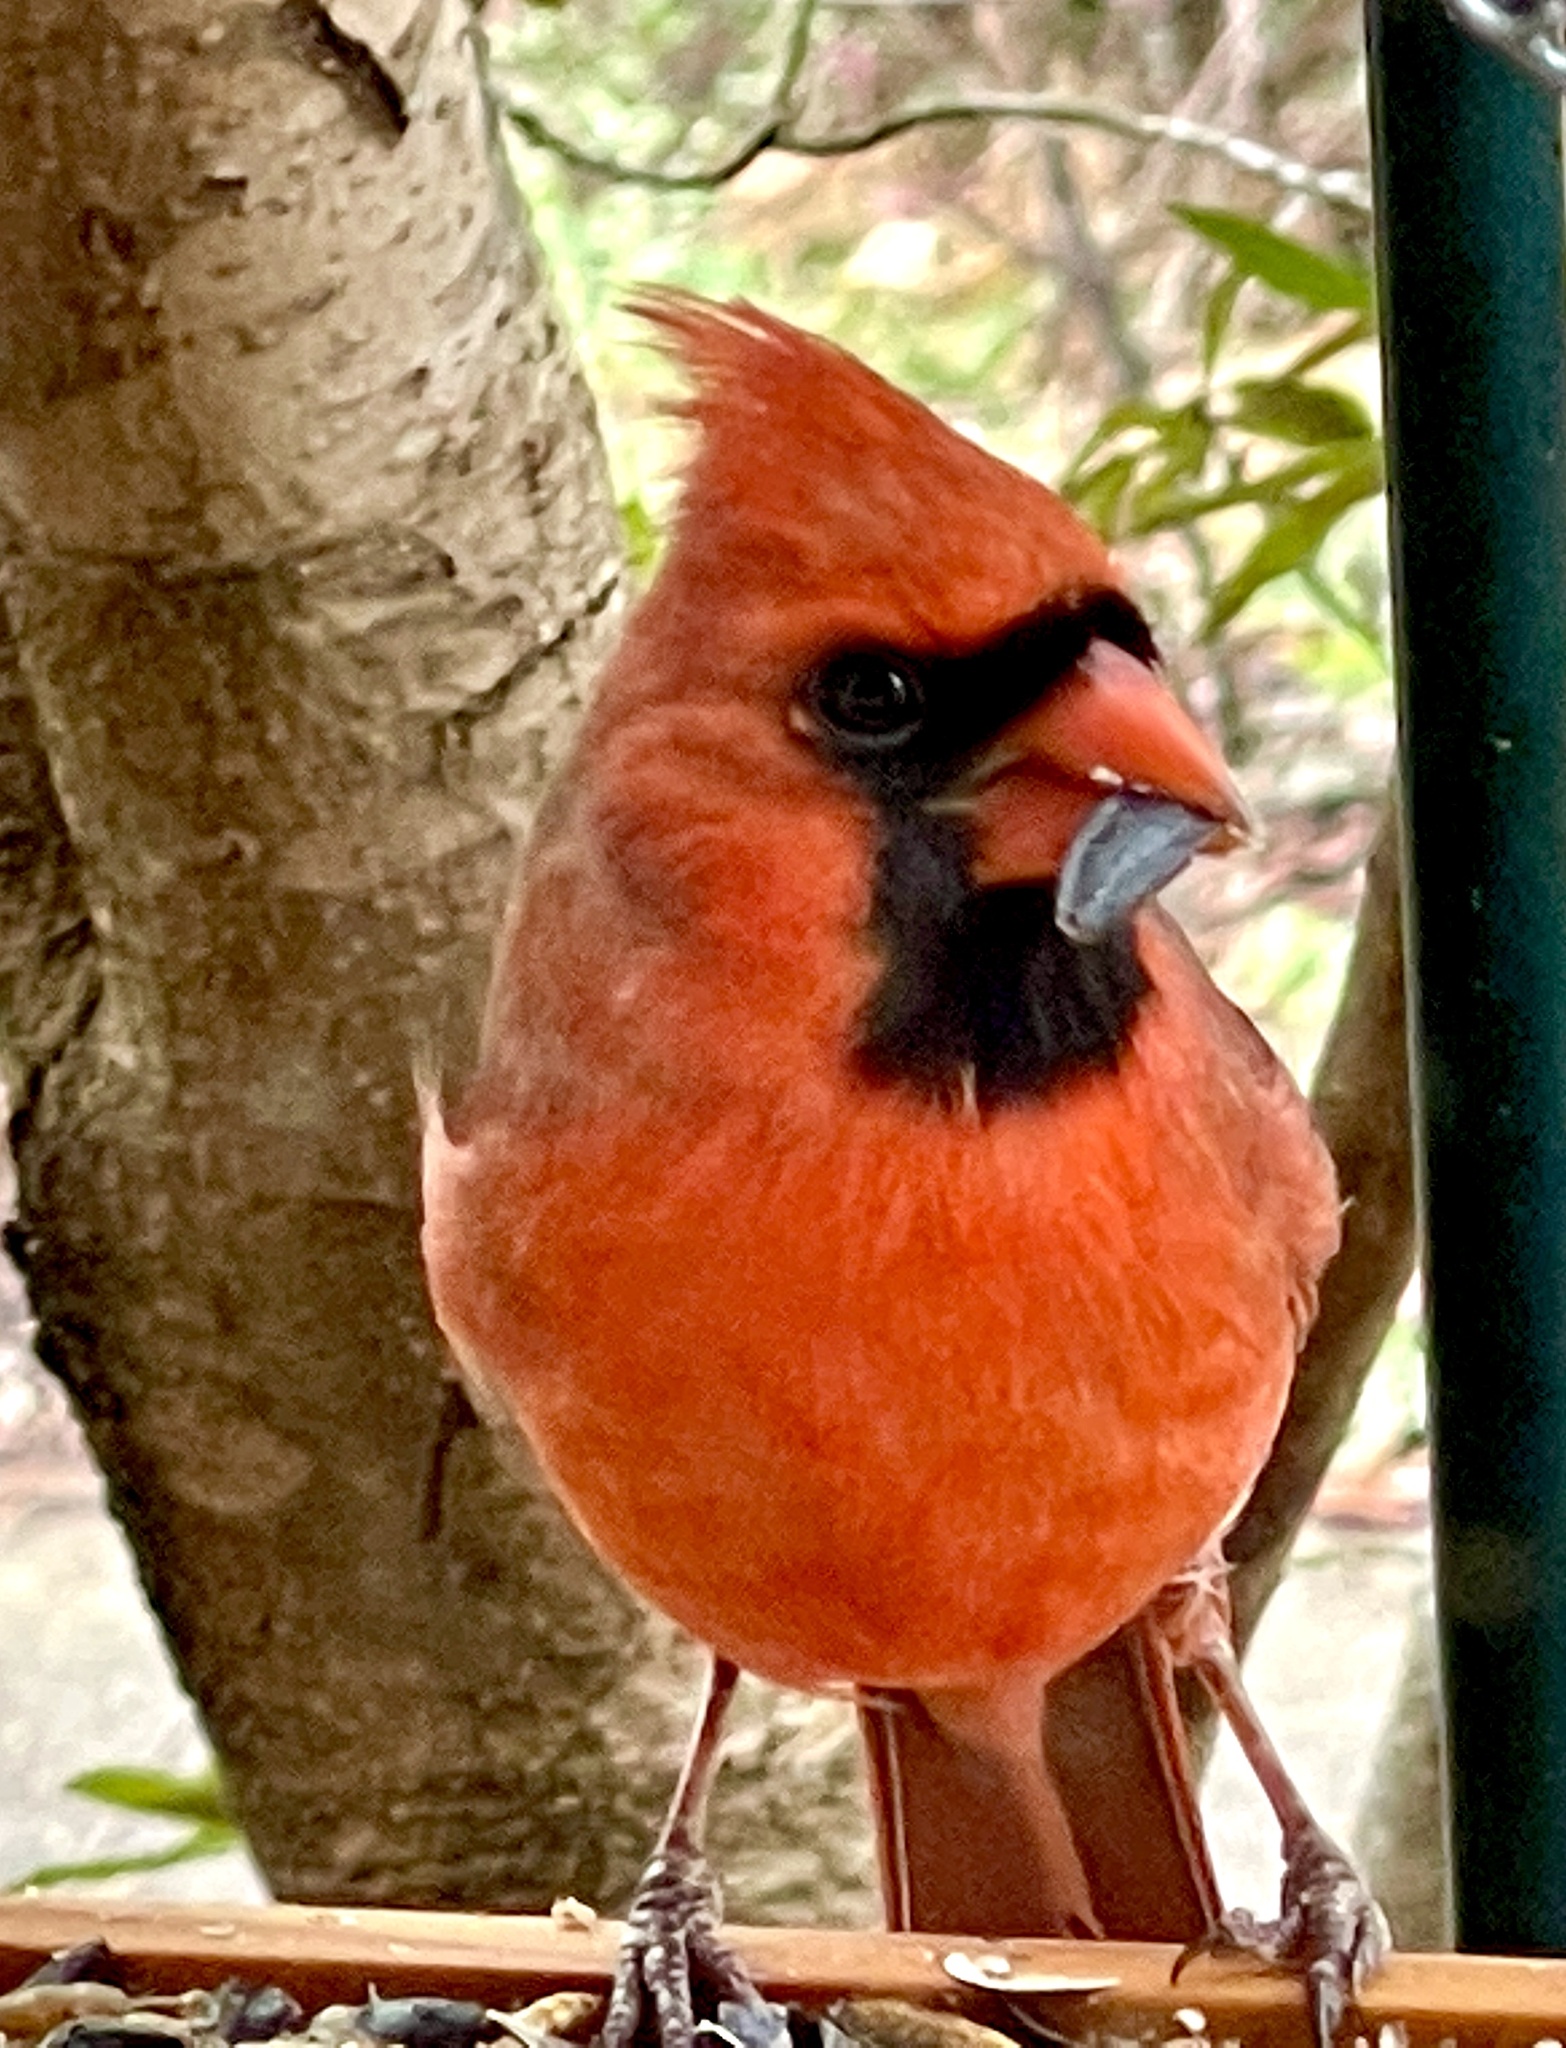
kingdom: Animalia
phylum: Chordata
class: Aves
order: Passeriformes
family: Cardinalidae
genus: Cardinalis
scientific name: Cardinalis cardinalis
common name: Northern cardinal
